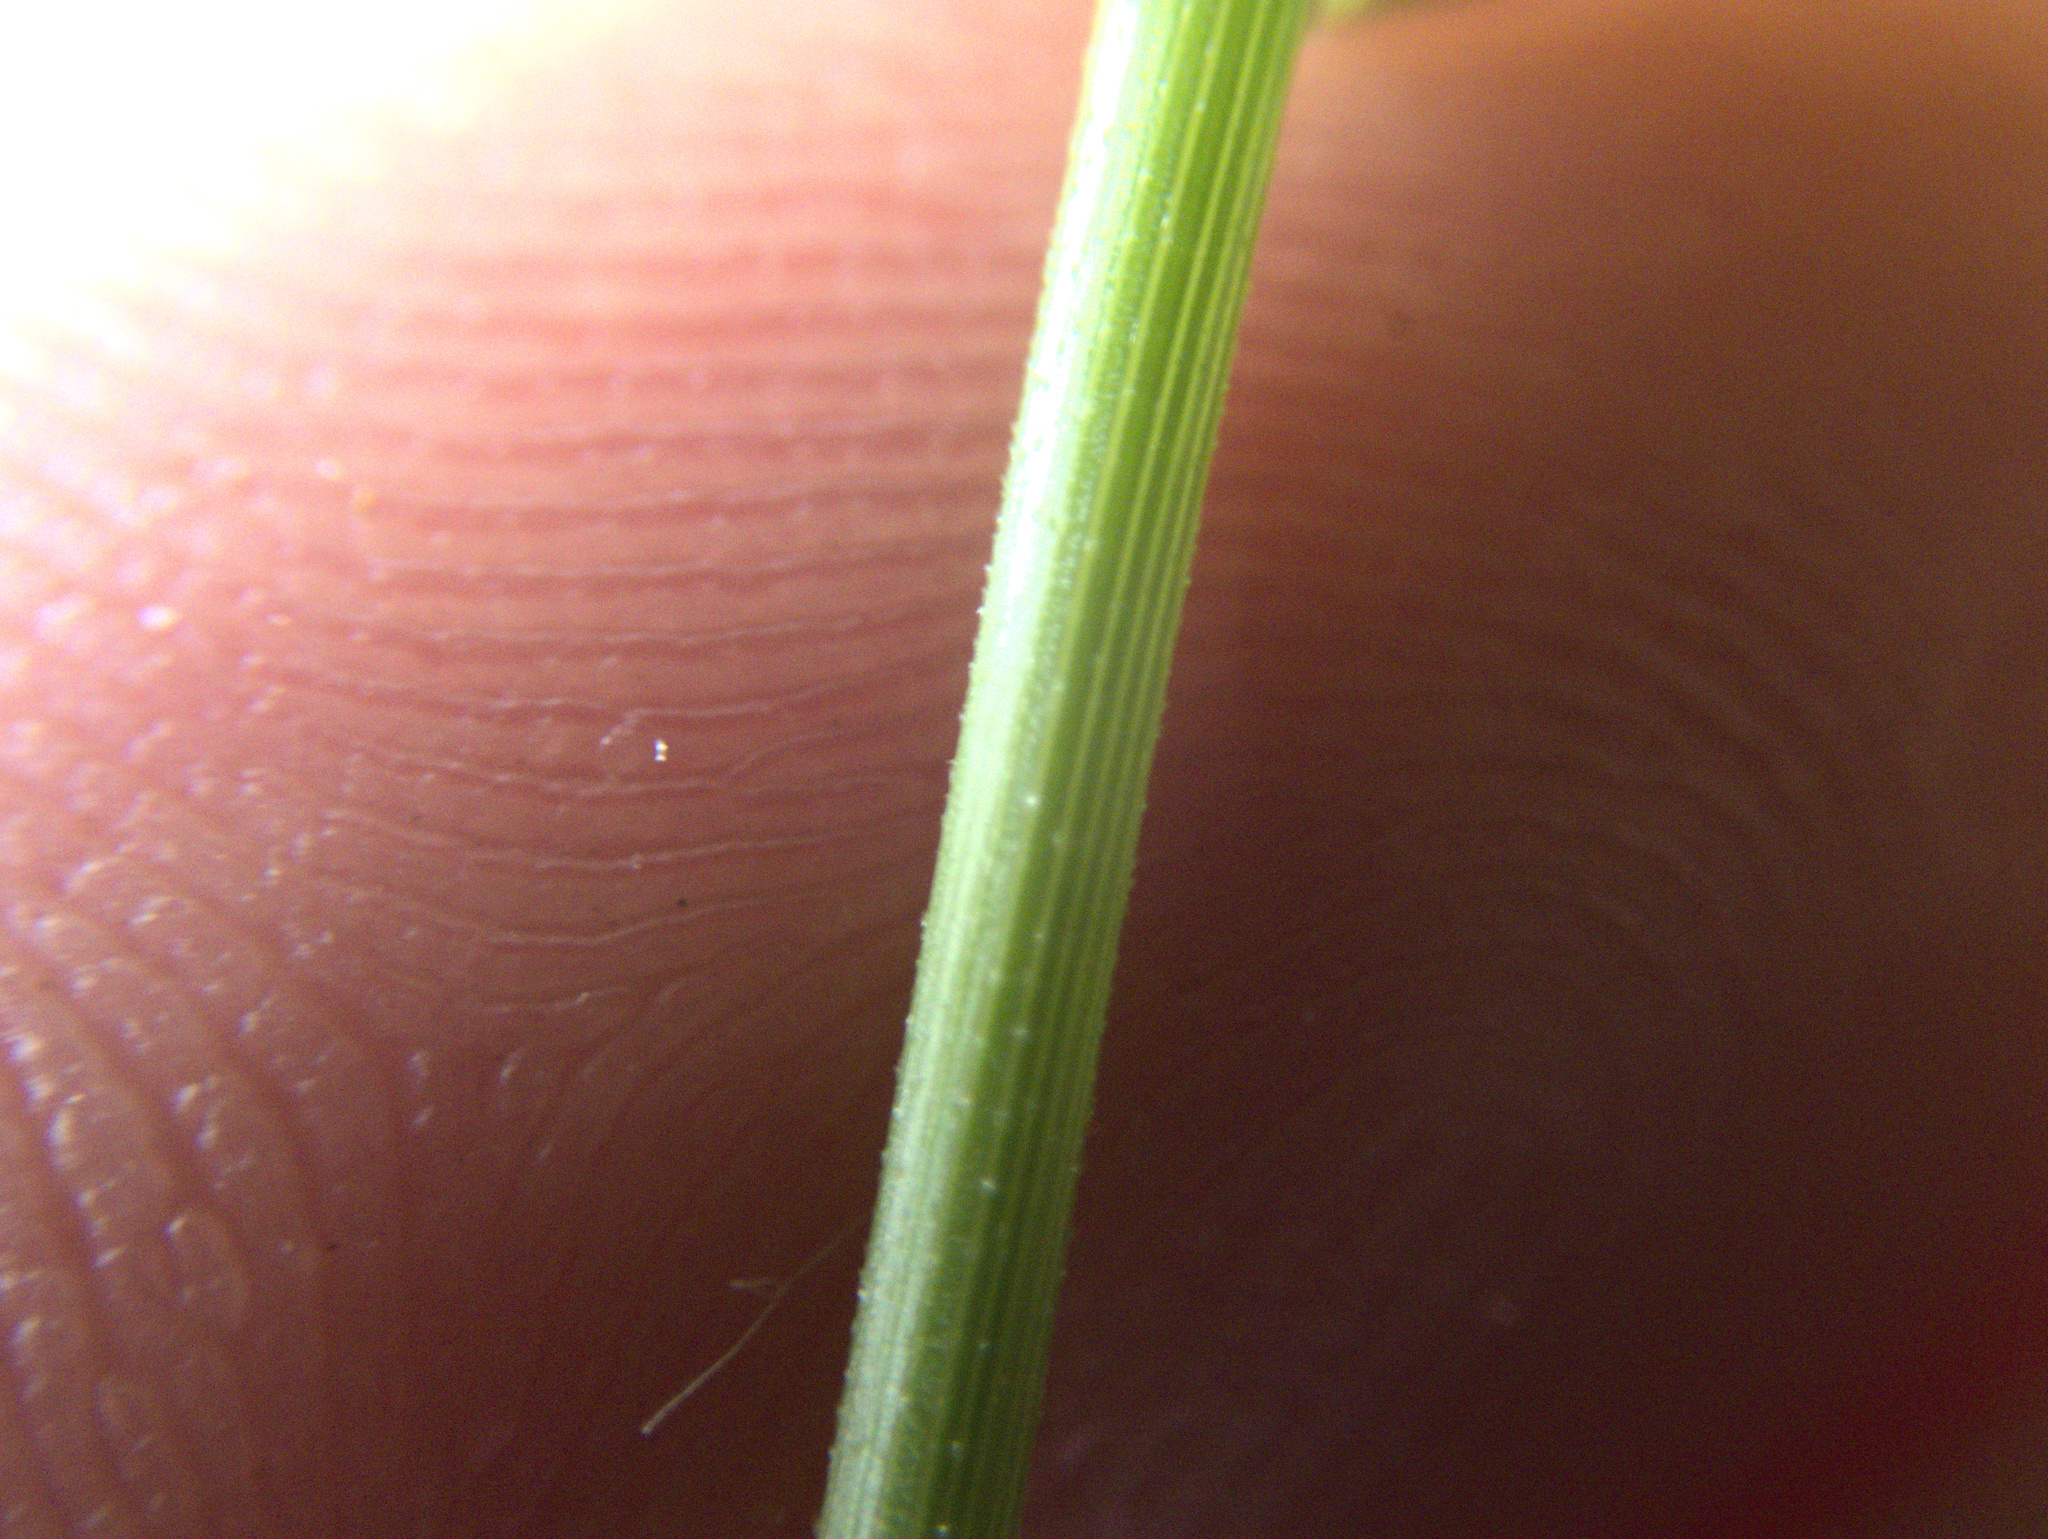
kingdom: Plantae
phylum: Tracheophyta
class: Liliopsida
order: Poales
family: Poaceae
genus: Echinopogon
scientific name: Echinopogon ovatus
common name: Hedgehog-grass
